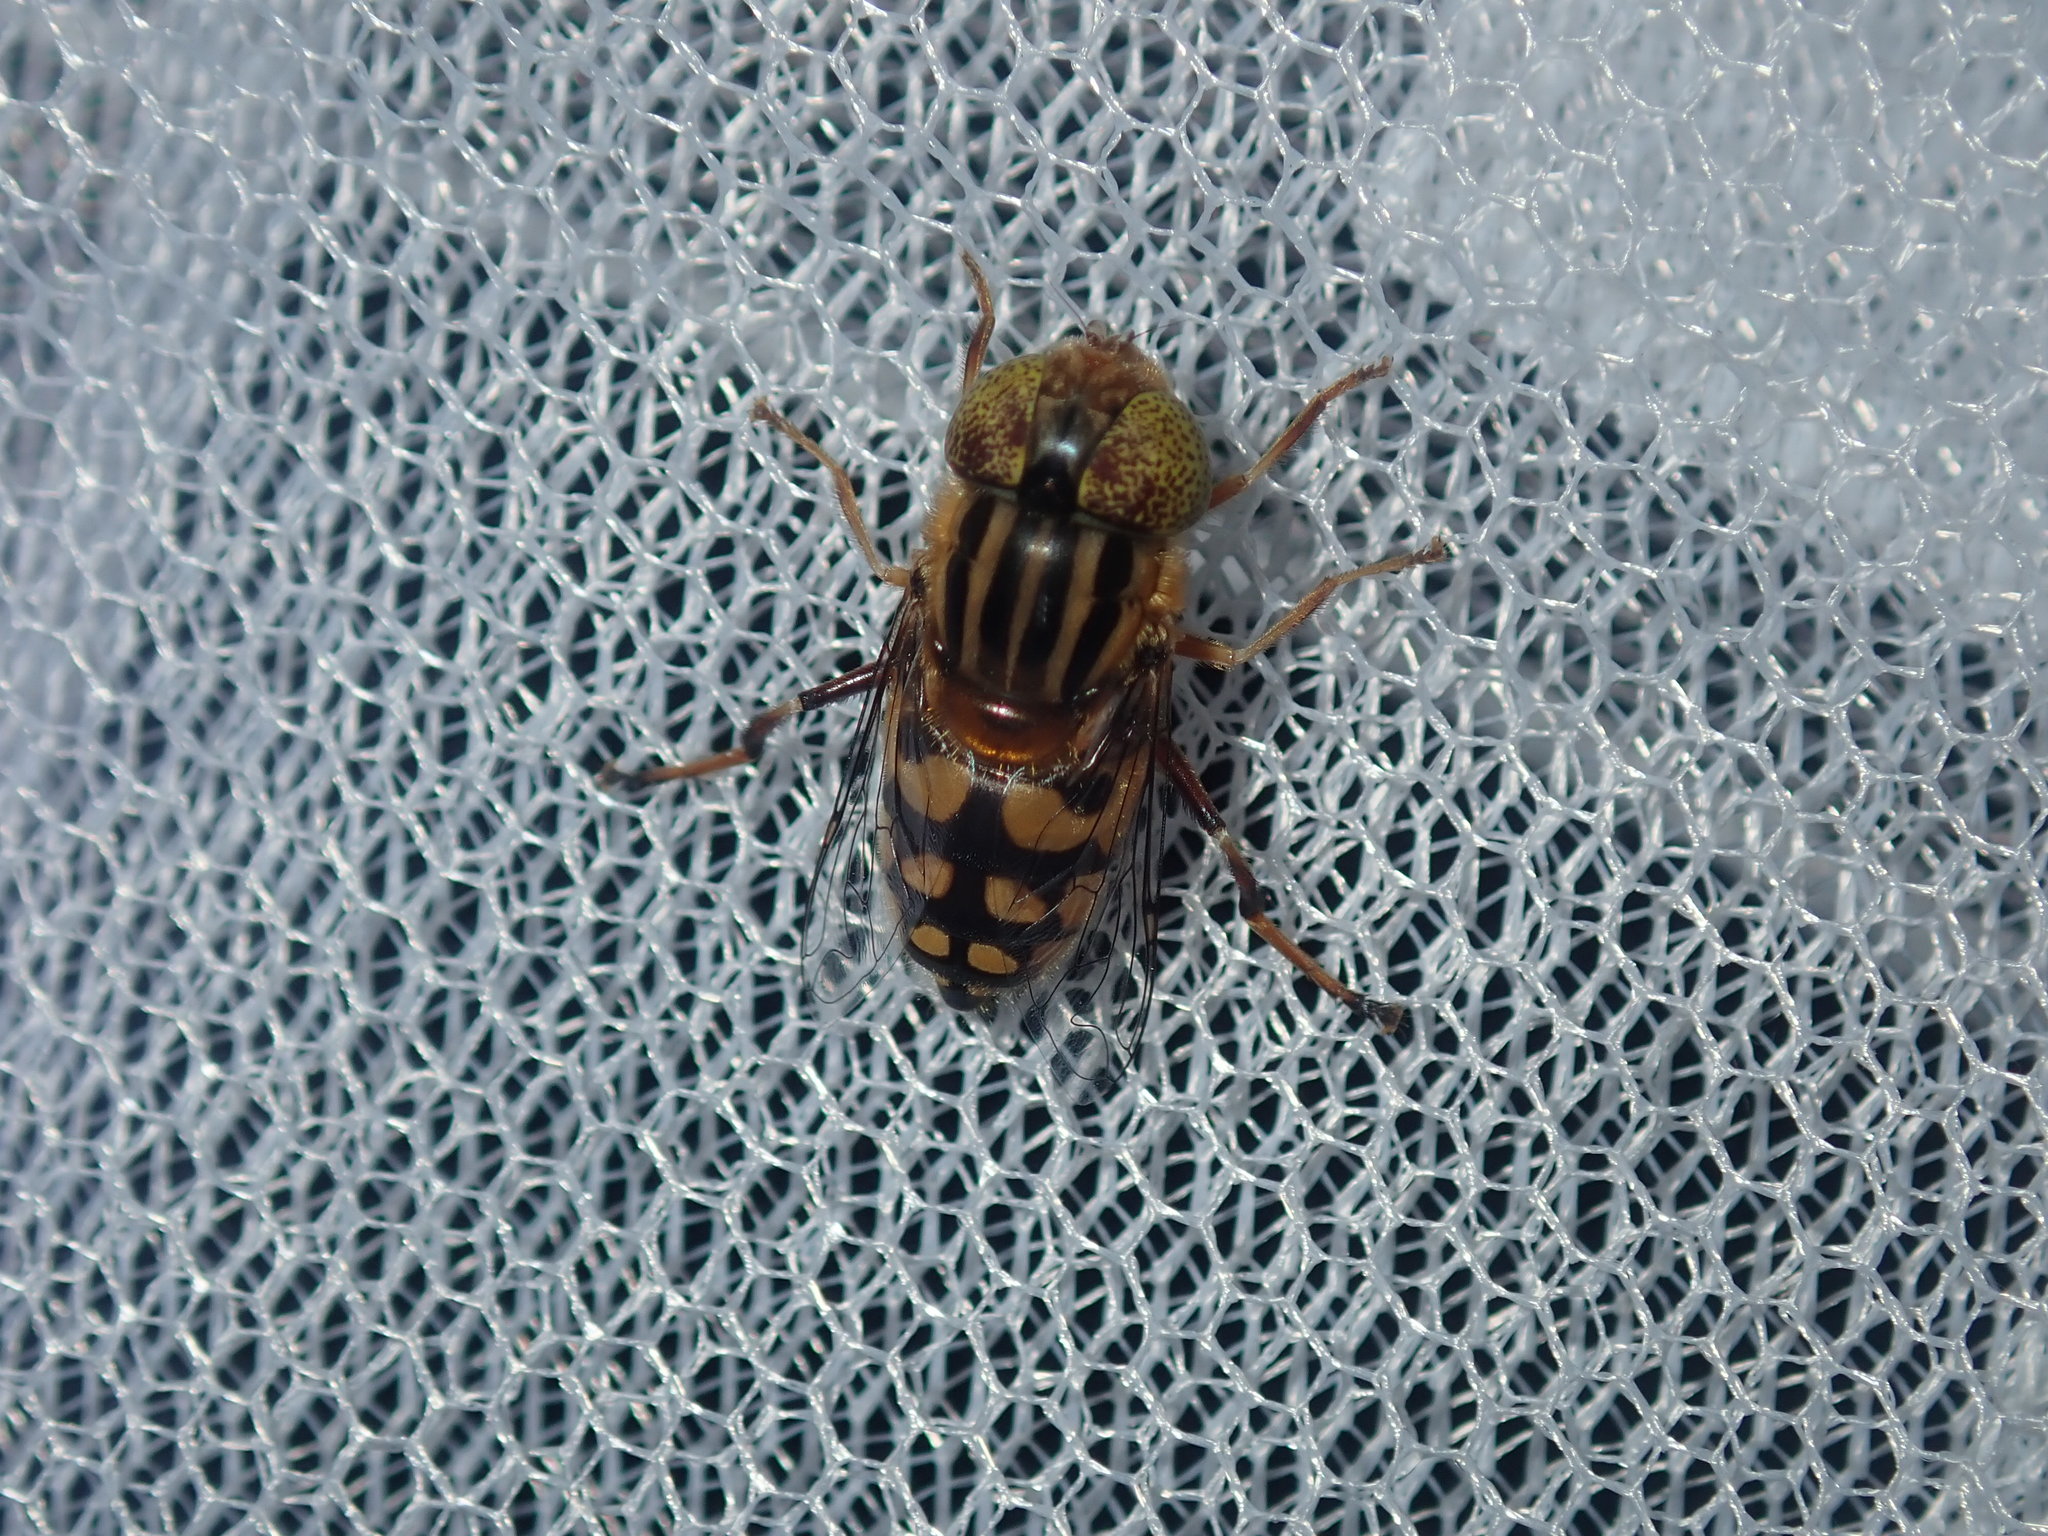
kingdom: Animalia
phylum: Arthropoda
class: Insecta
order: Diptera
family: Syrphidae
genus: Eristalinus
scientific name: Eristalinus punctulatus
